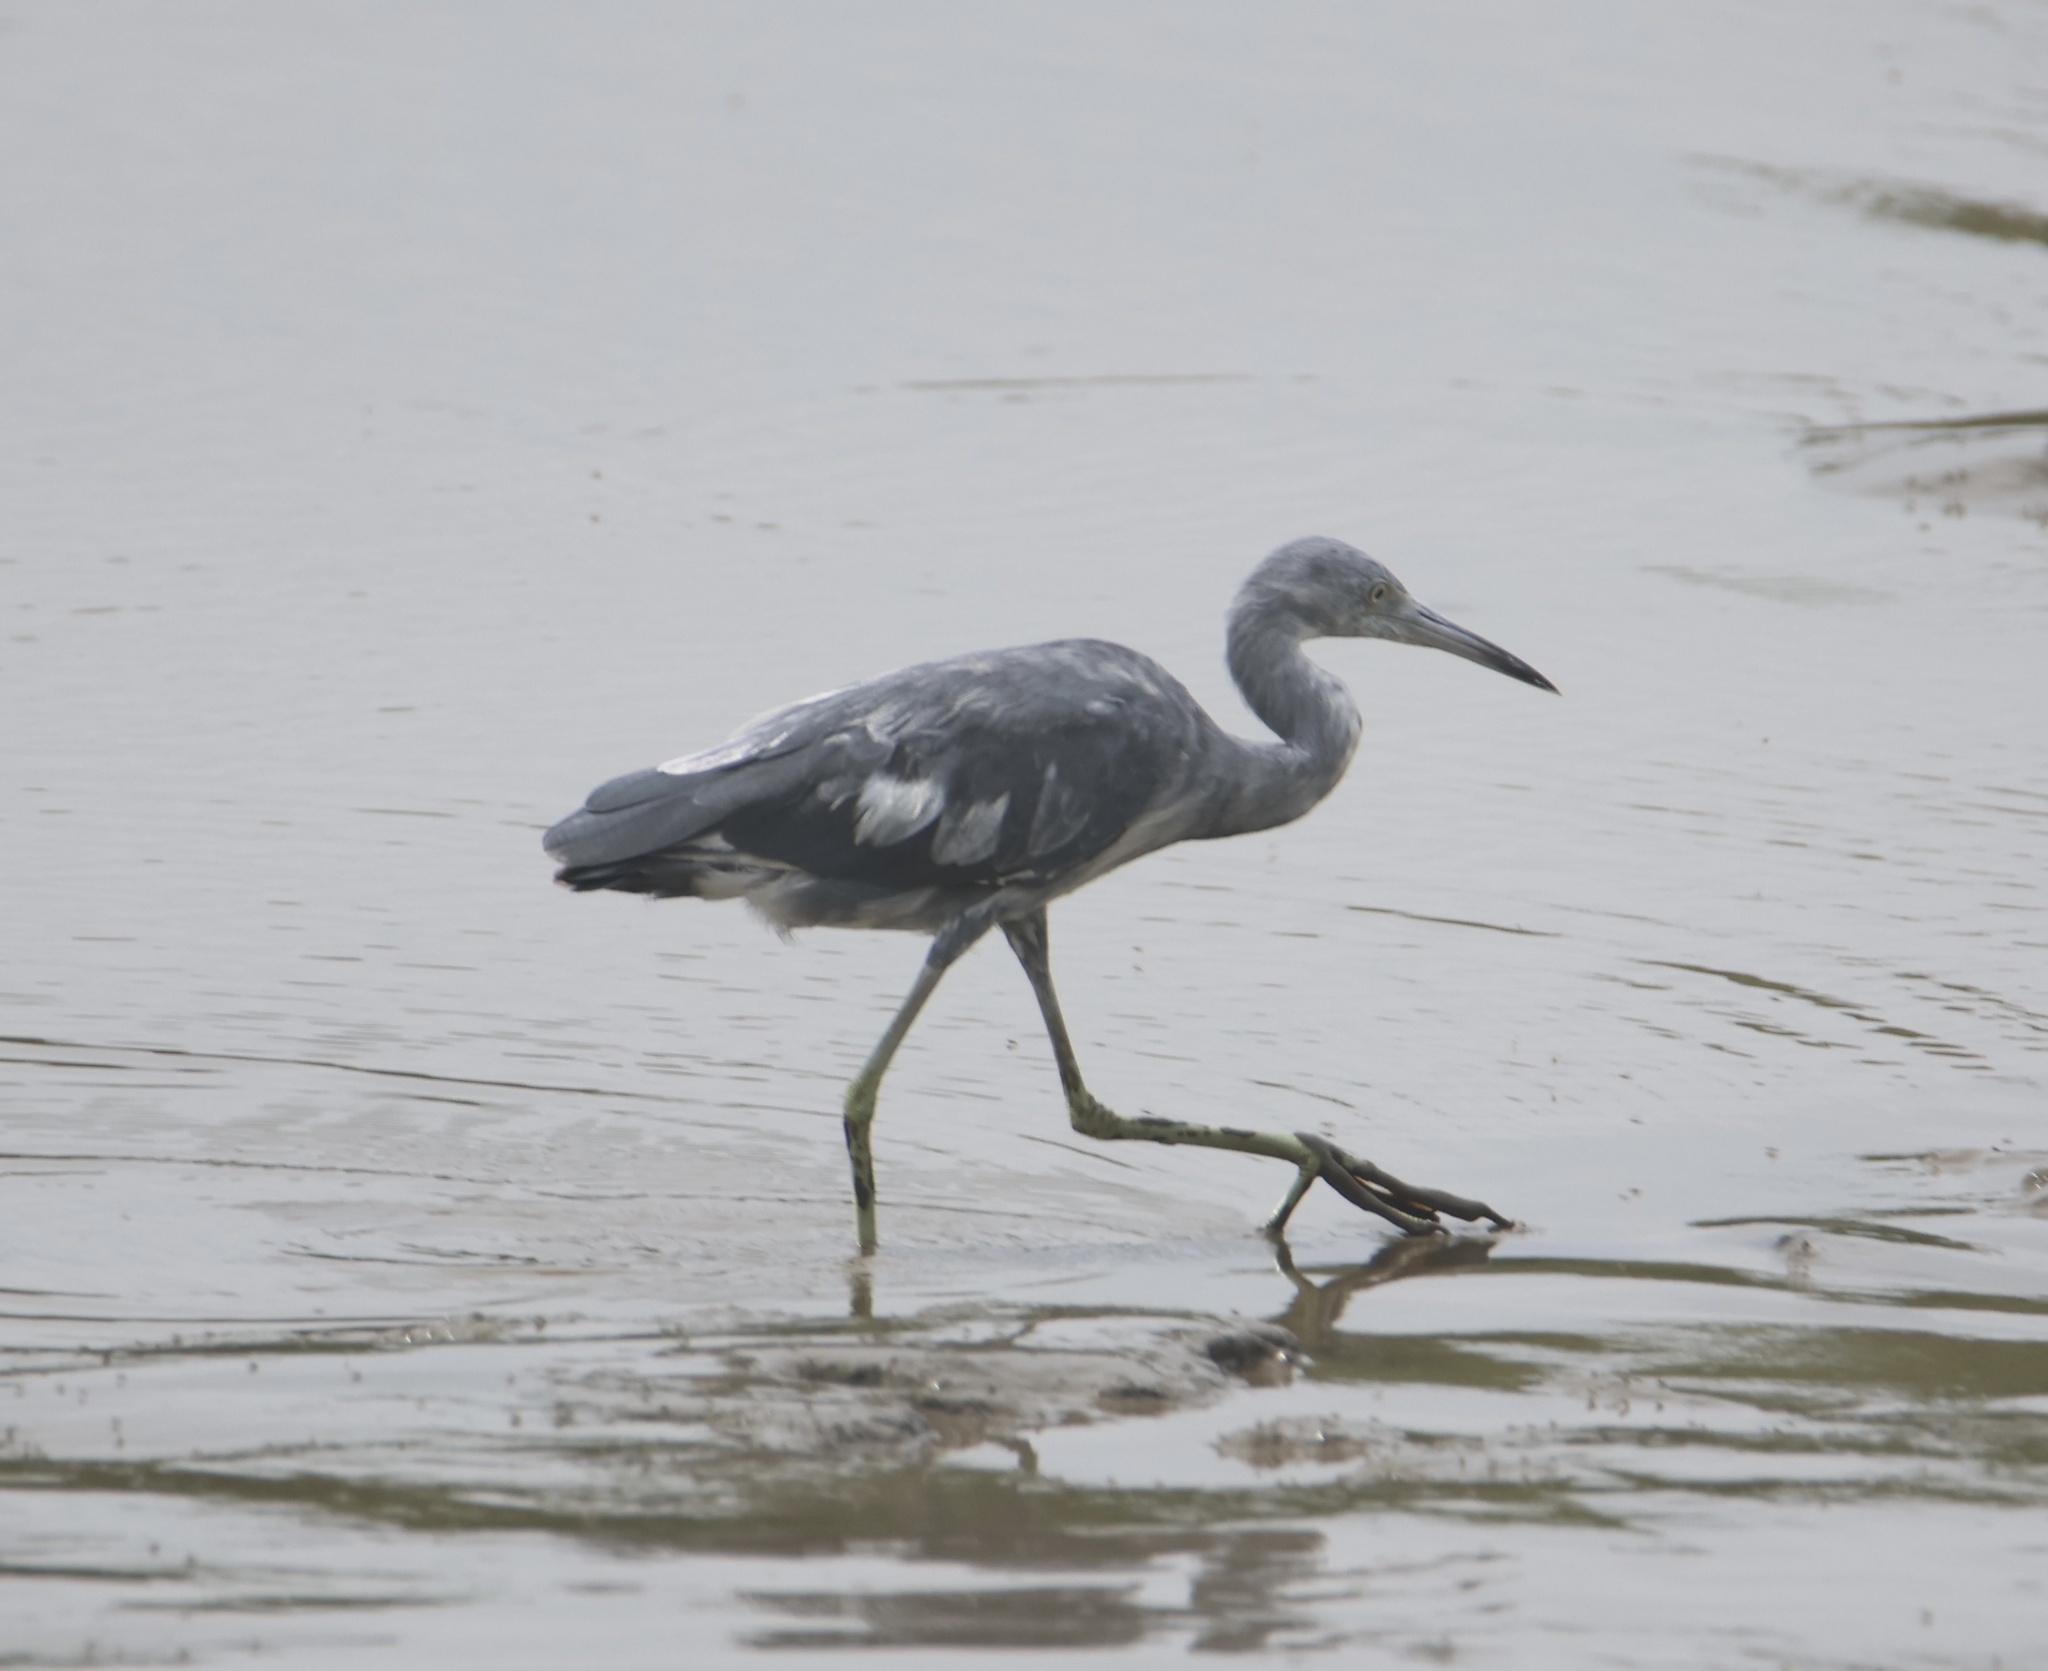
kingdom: Animalia
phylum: Chordata
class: Aves
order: Pelecaniformes
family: Ardeidae
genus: Egretta
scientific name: Egretta caerulea
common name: Little blue heron
